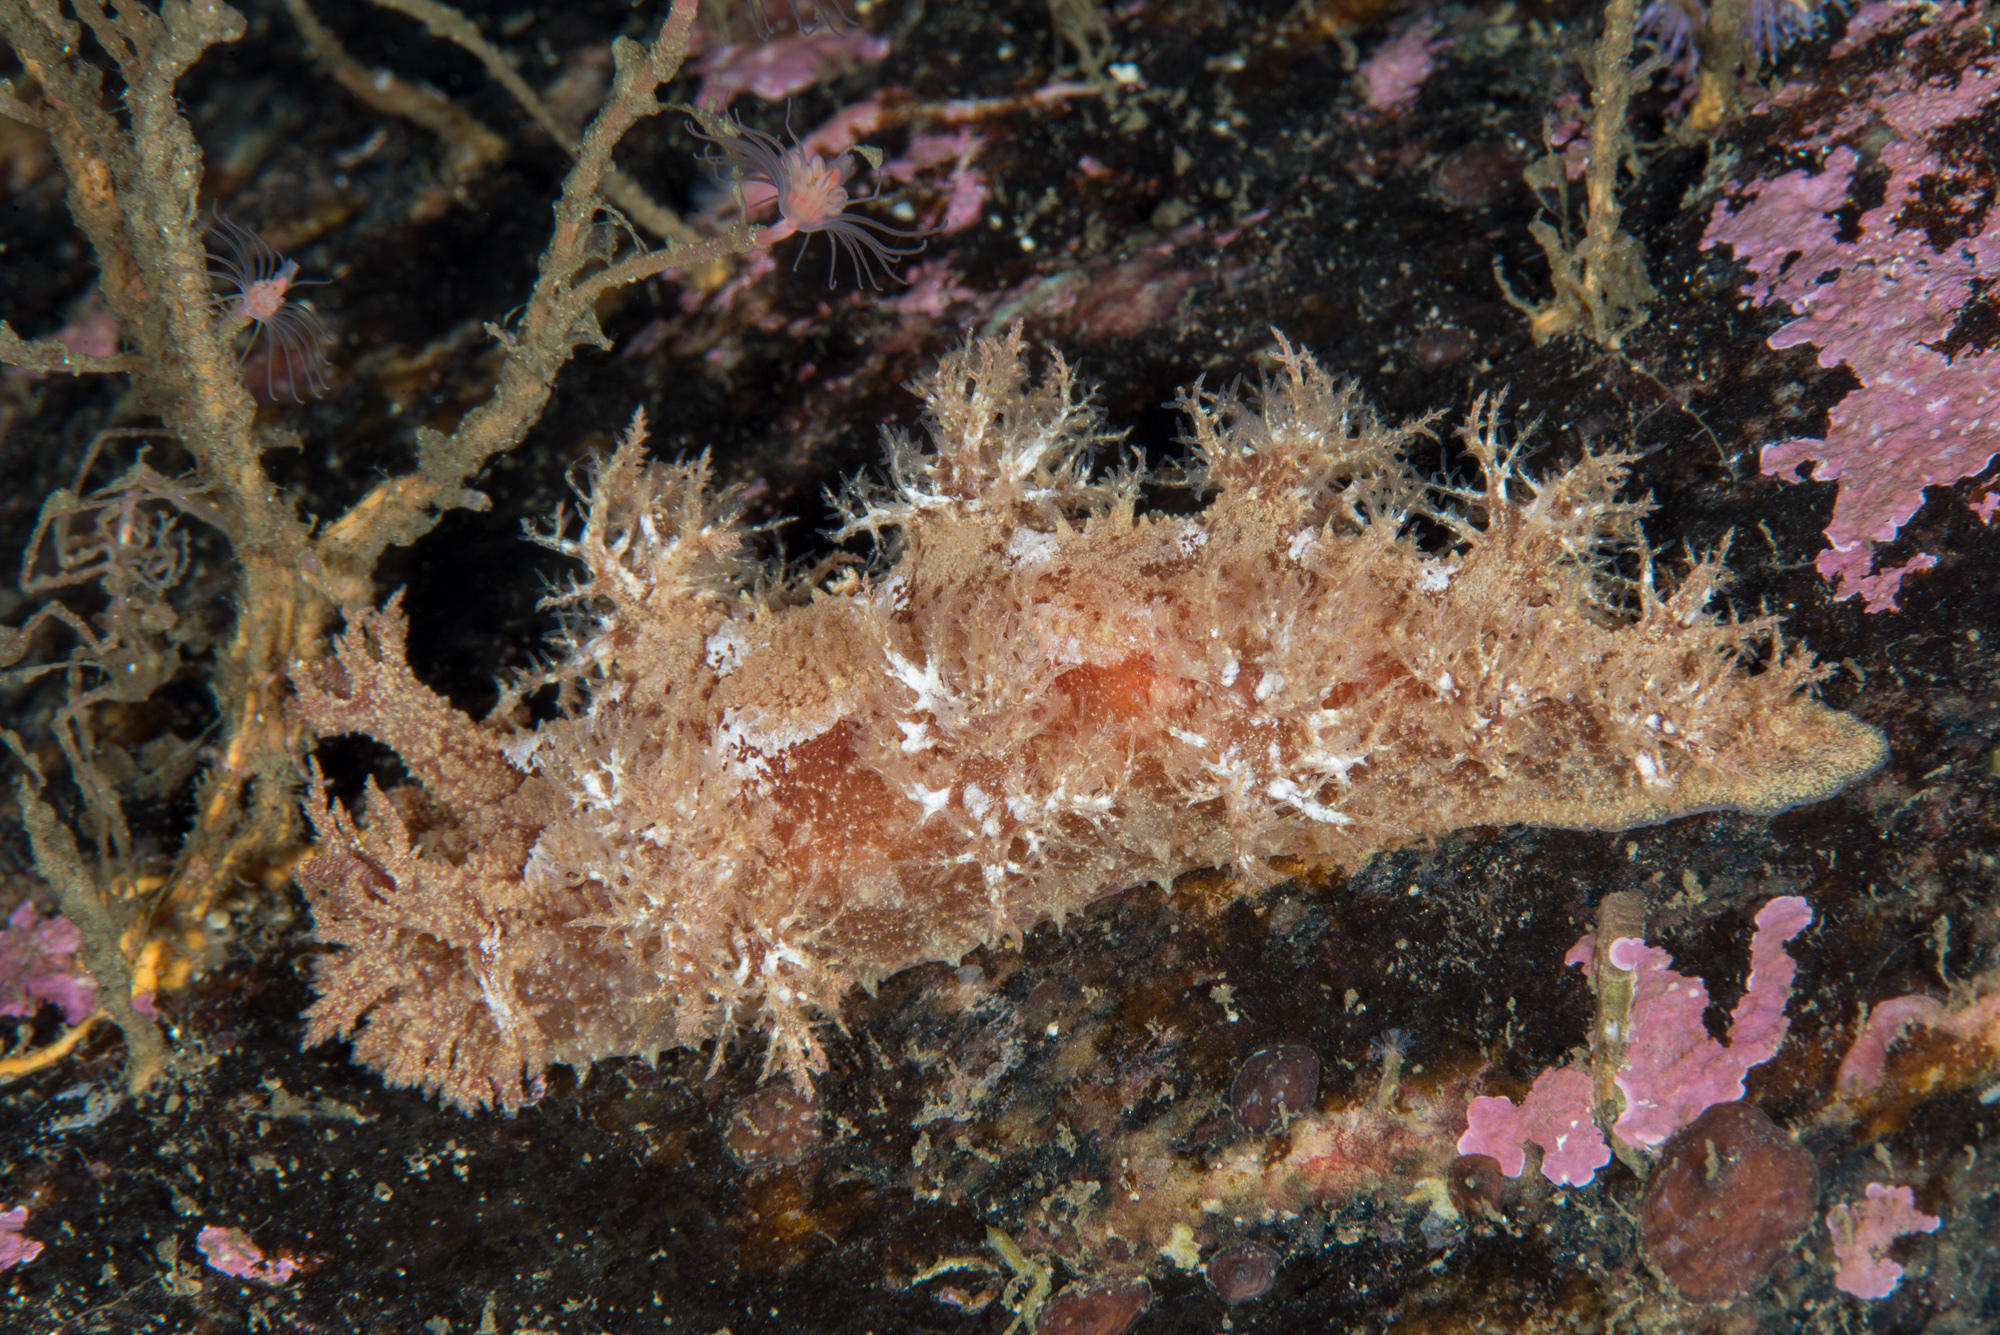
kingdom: Animalia
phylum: Mollusca
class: Gastropoda
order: Nudibranchia
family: Dendronotidae
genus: Dendronotus
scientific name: Dendronotus europaeus
